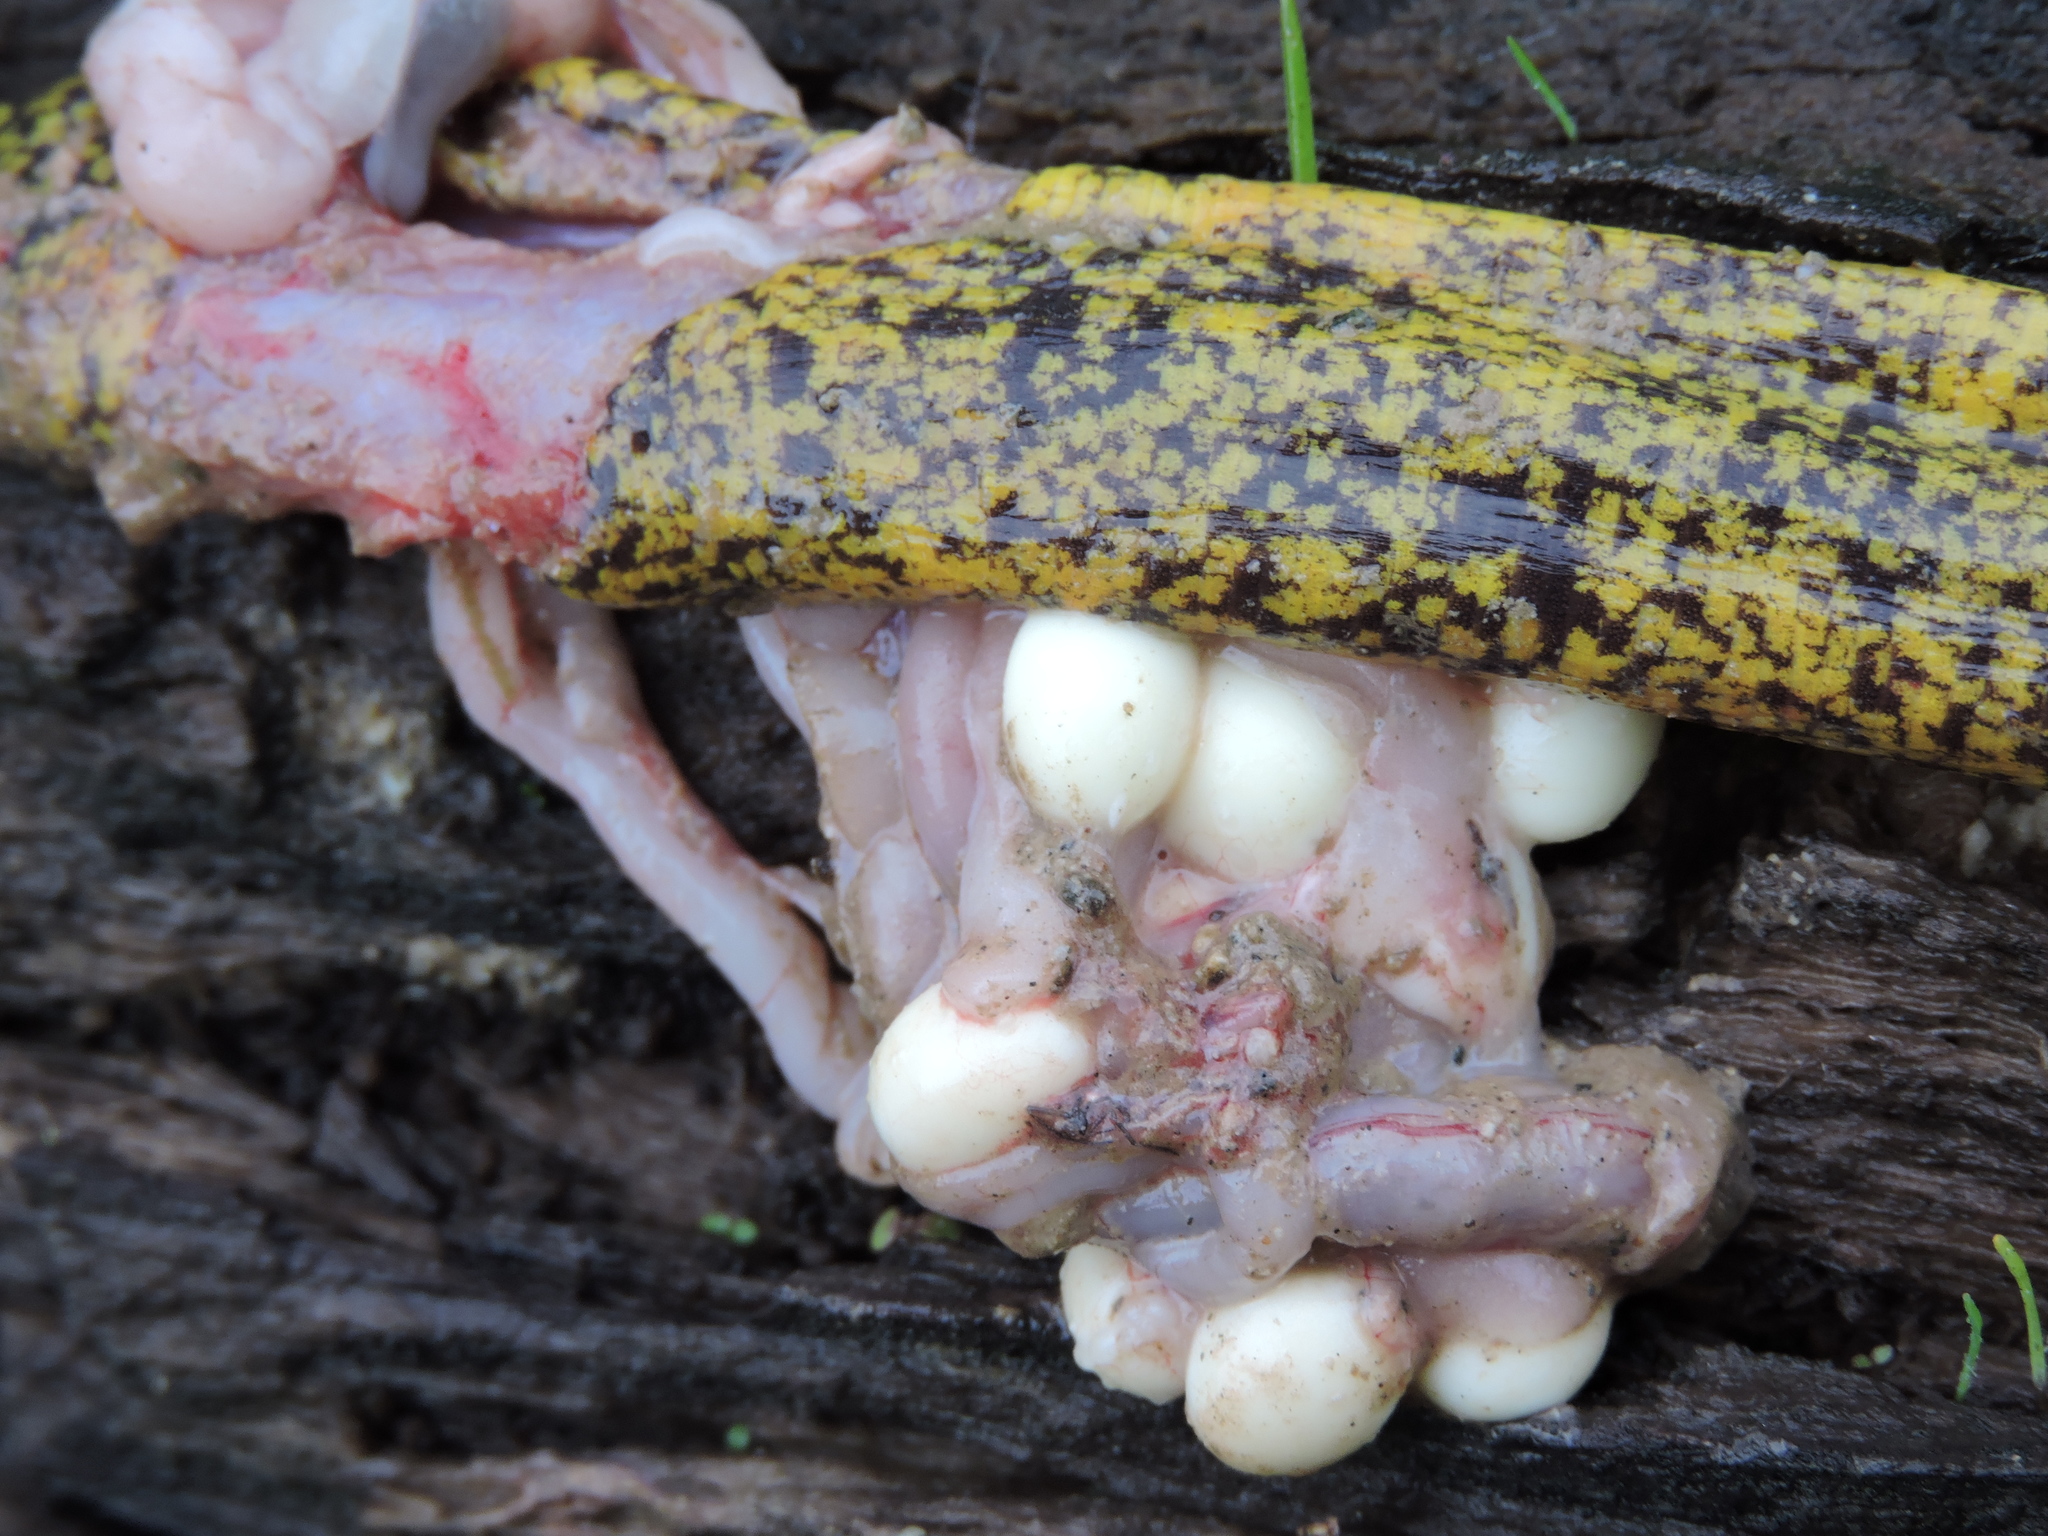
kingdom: Animalia
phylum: Chordata
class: Amphibia
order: Gymnophiona
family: Rhinatrematidae
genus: Epicrionops
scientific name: Epicrionops bicolor
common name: Two-colored caecilian
